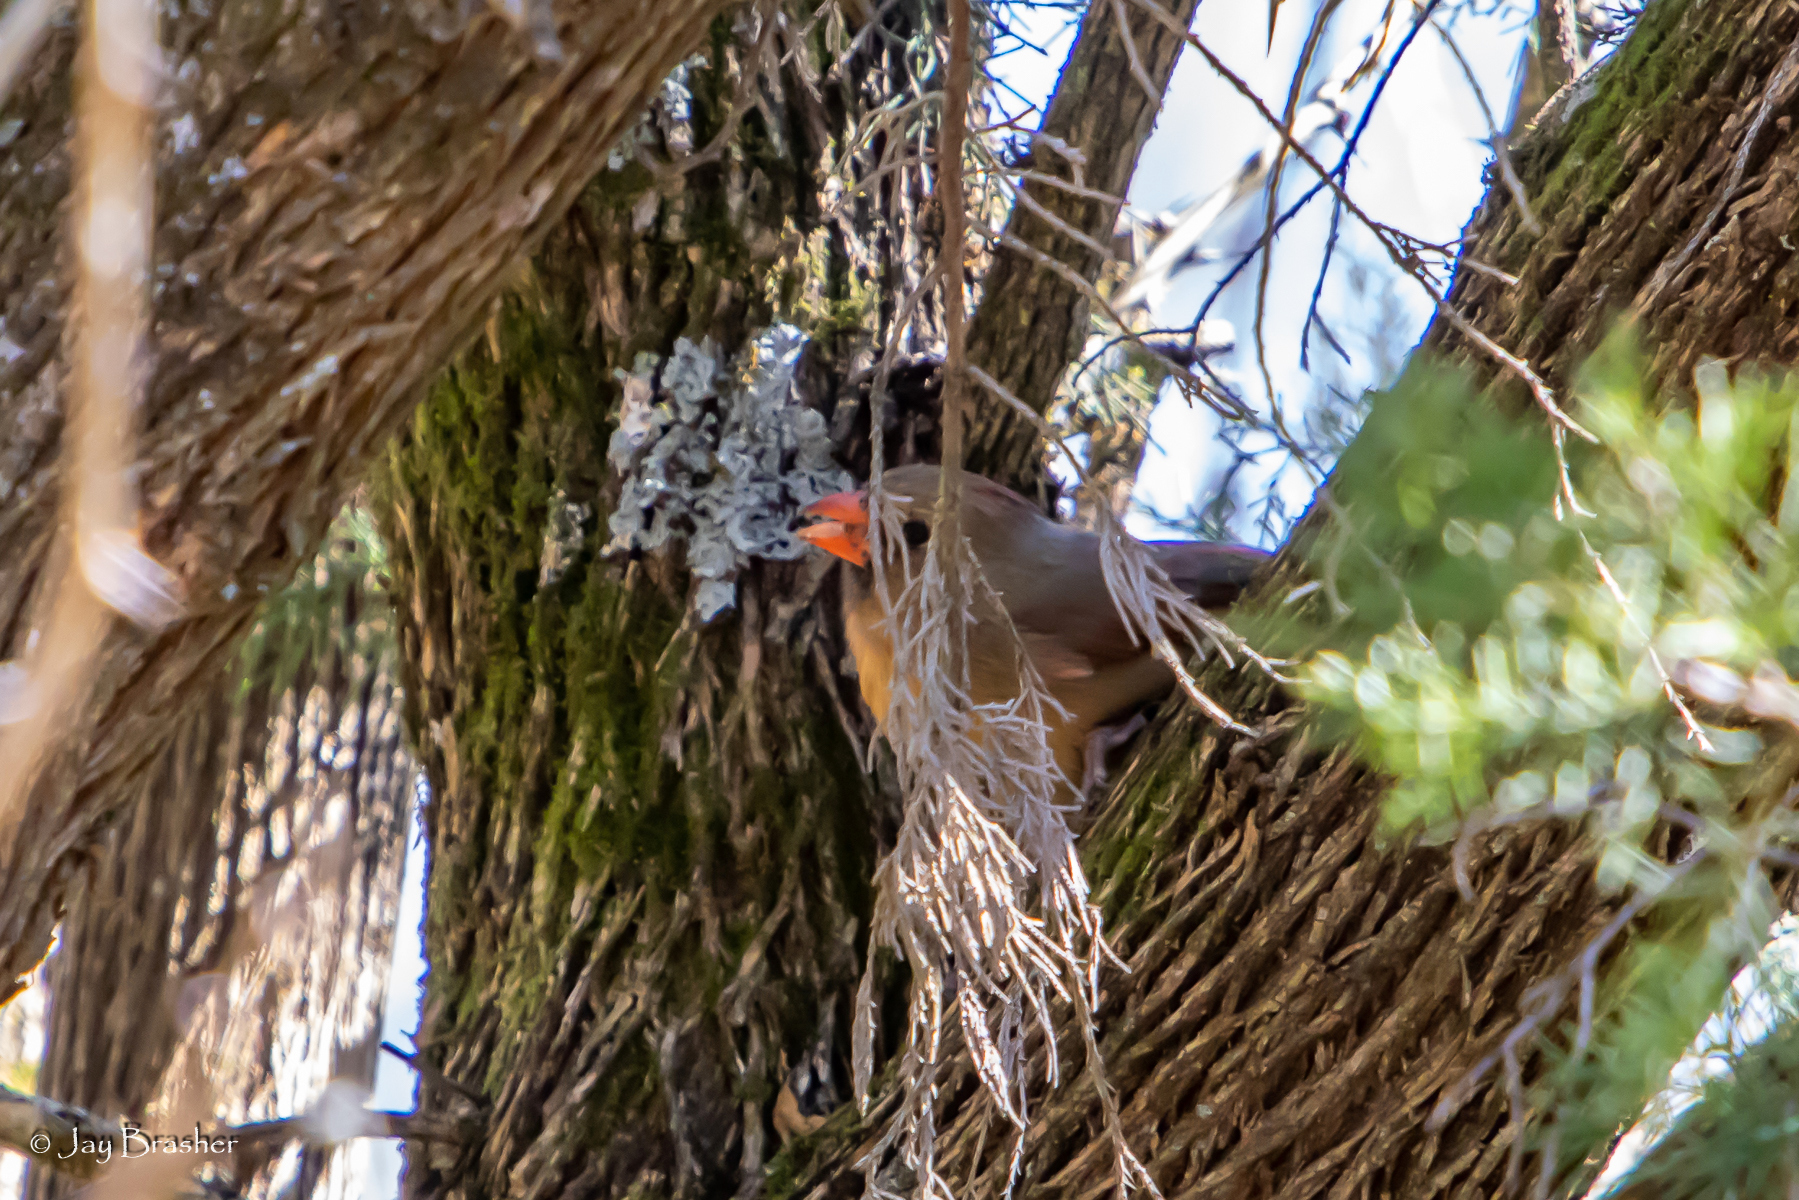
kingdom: Animalia
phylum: Chordata
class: Aves
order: Passeriformes
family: Cardinalidae
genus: Cardinalis
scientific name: Cardinalis cardinalis
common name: Northern cardinal
